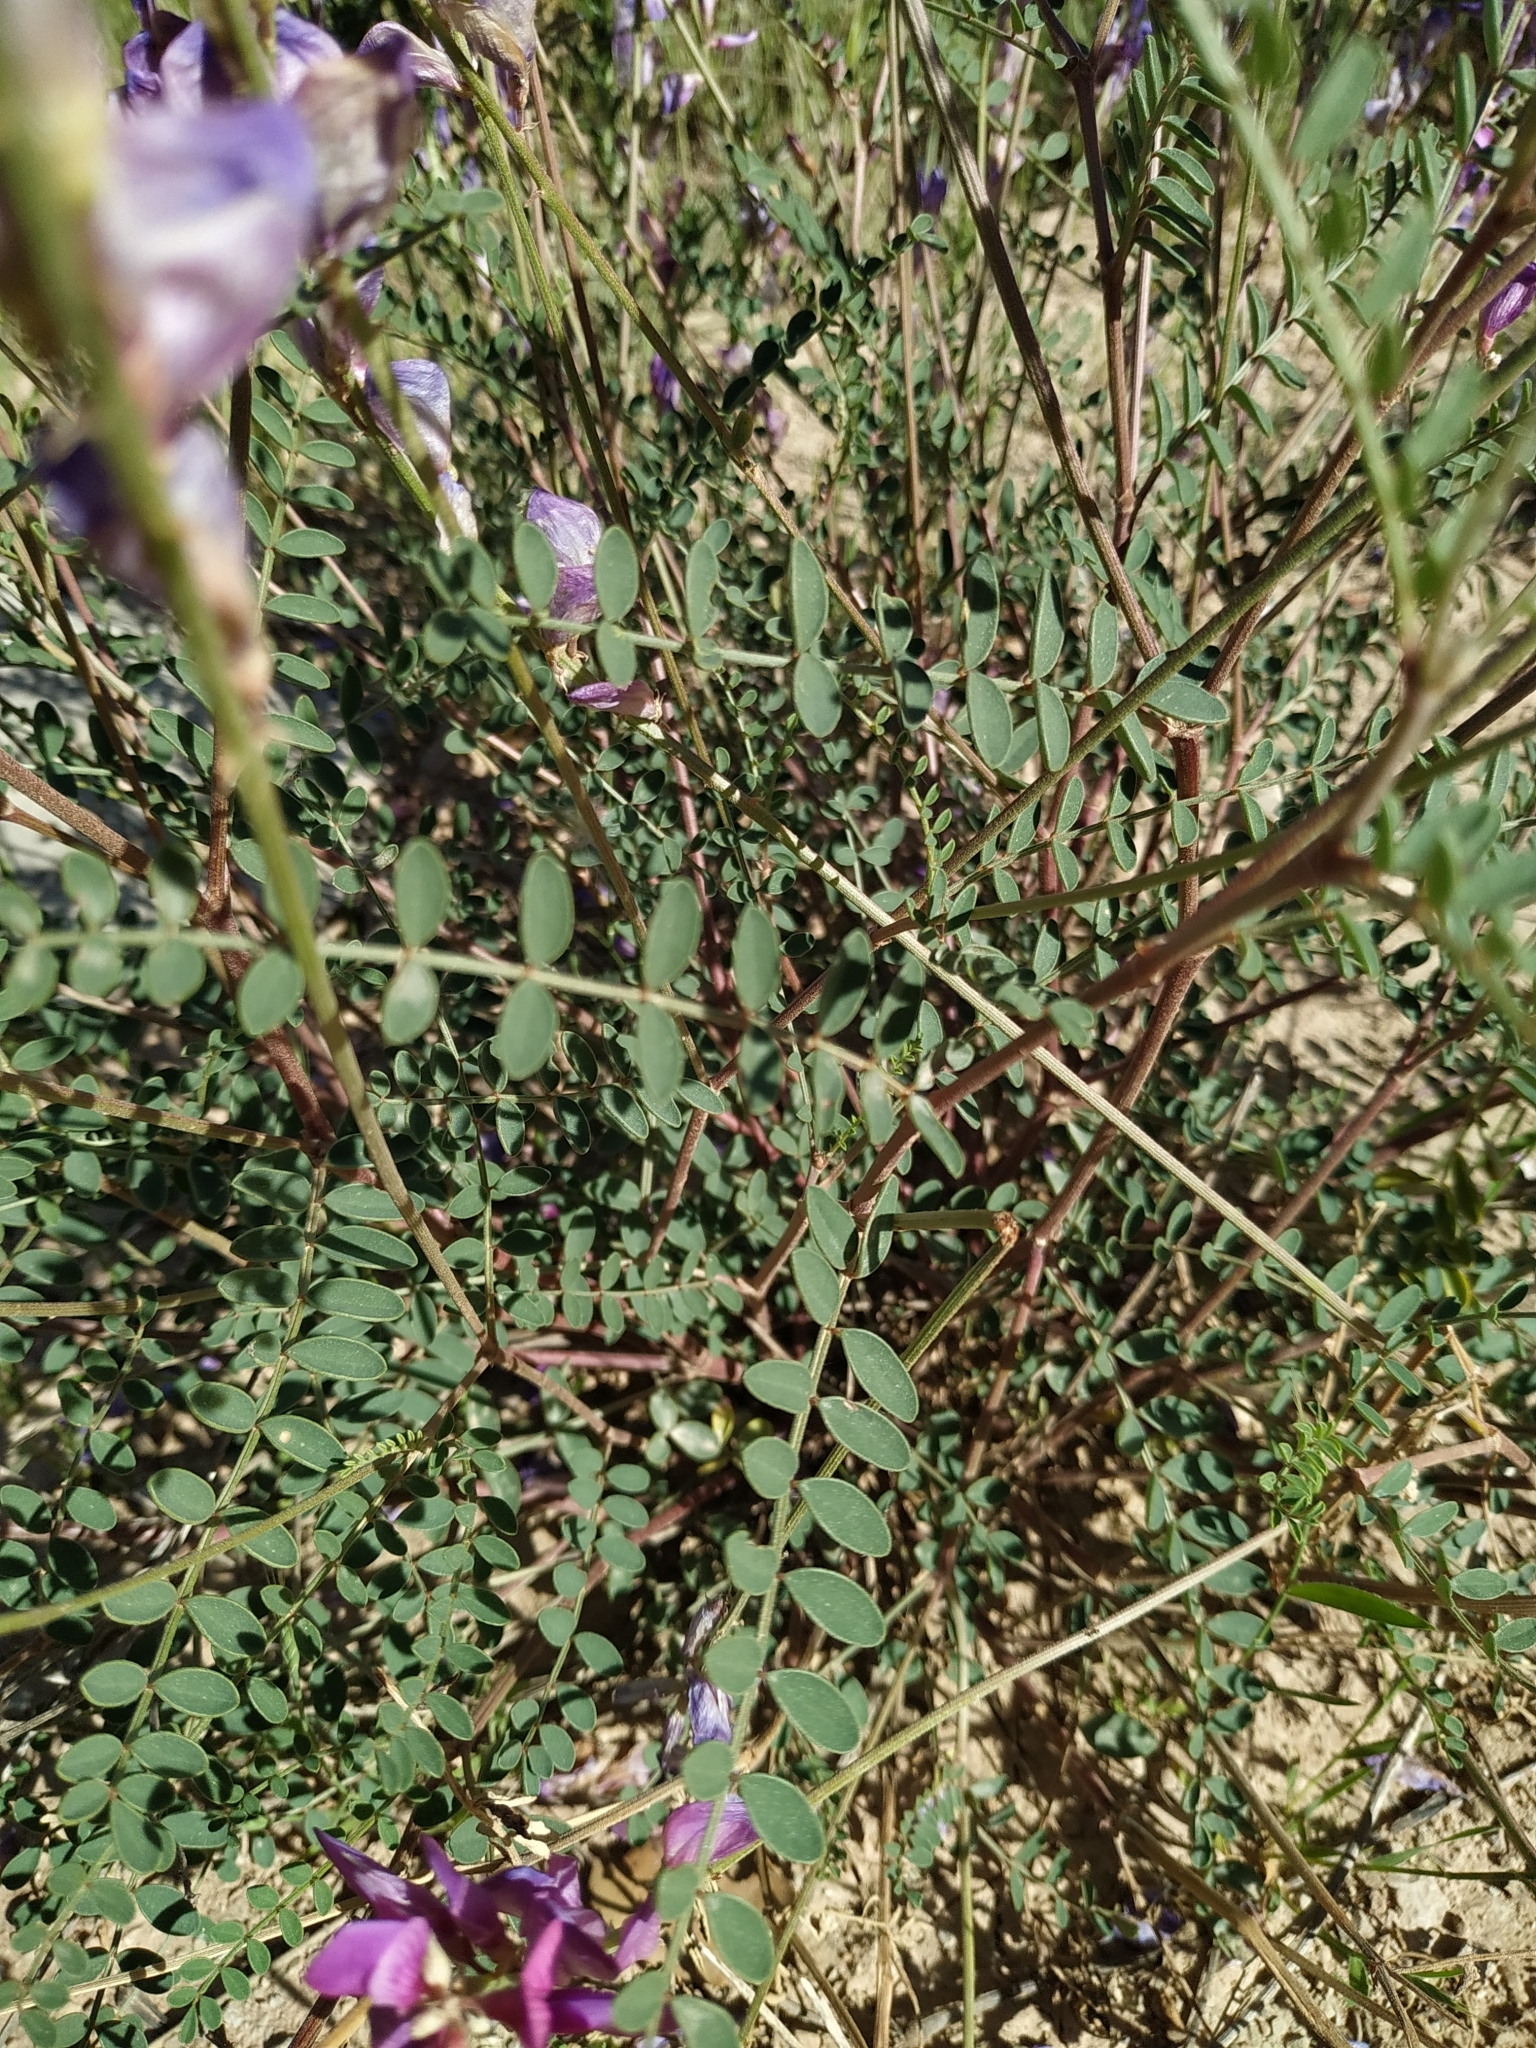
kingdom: Plantae
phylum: Tracheophyta
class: Magnoliopsida
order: Fabales
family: Fabaceae
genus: Hedysarum
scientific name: Hedysarum boveanum
